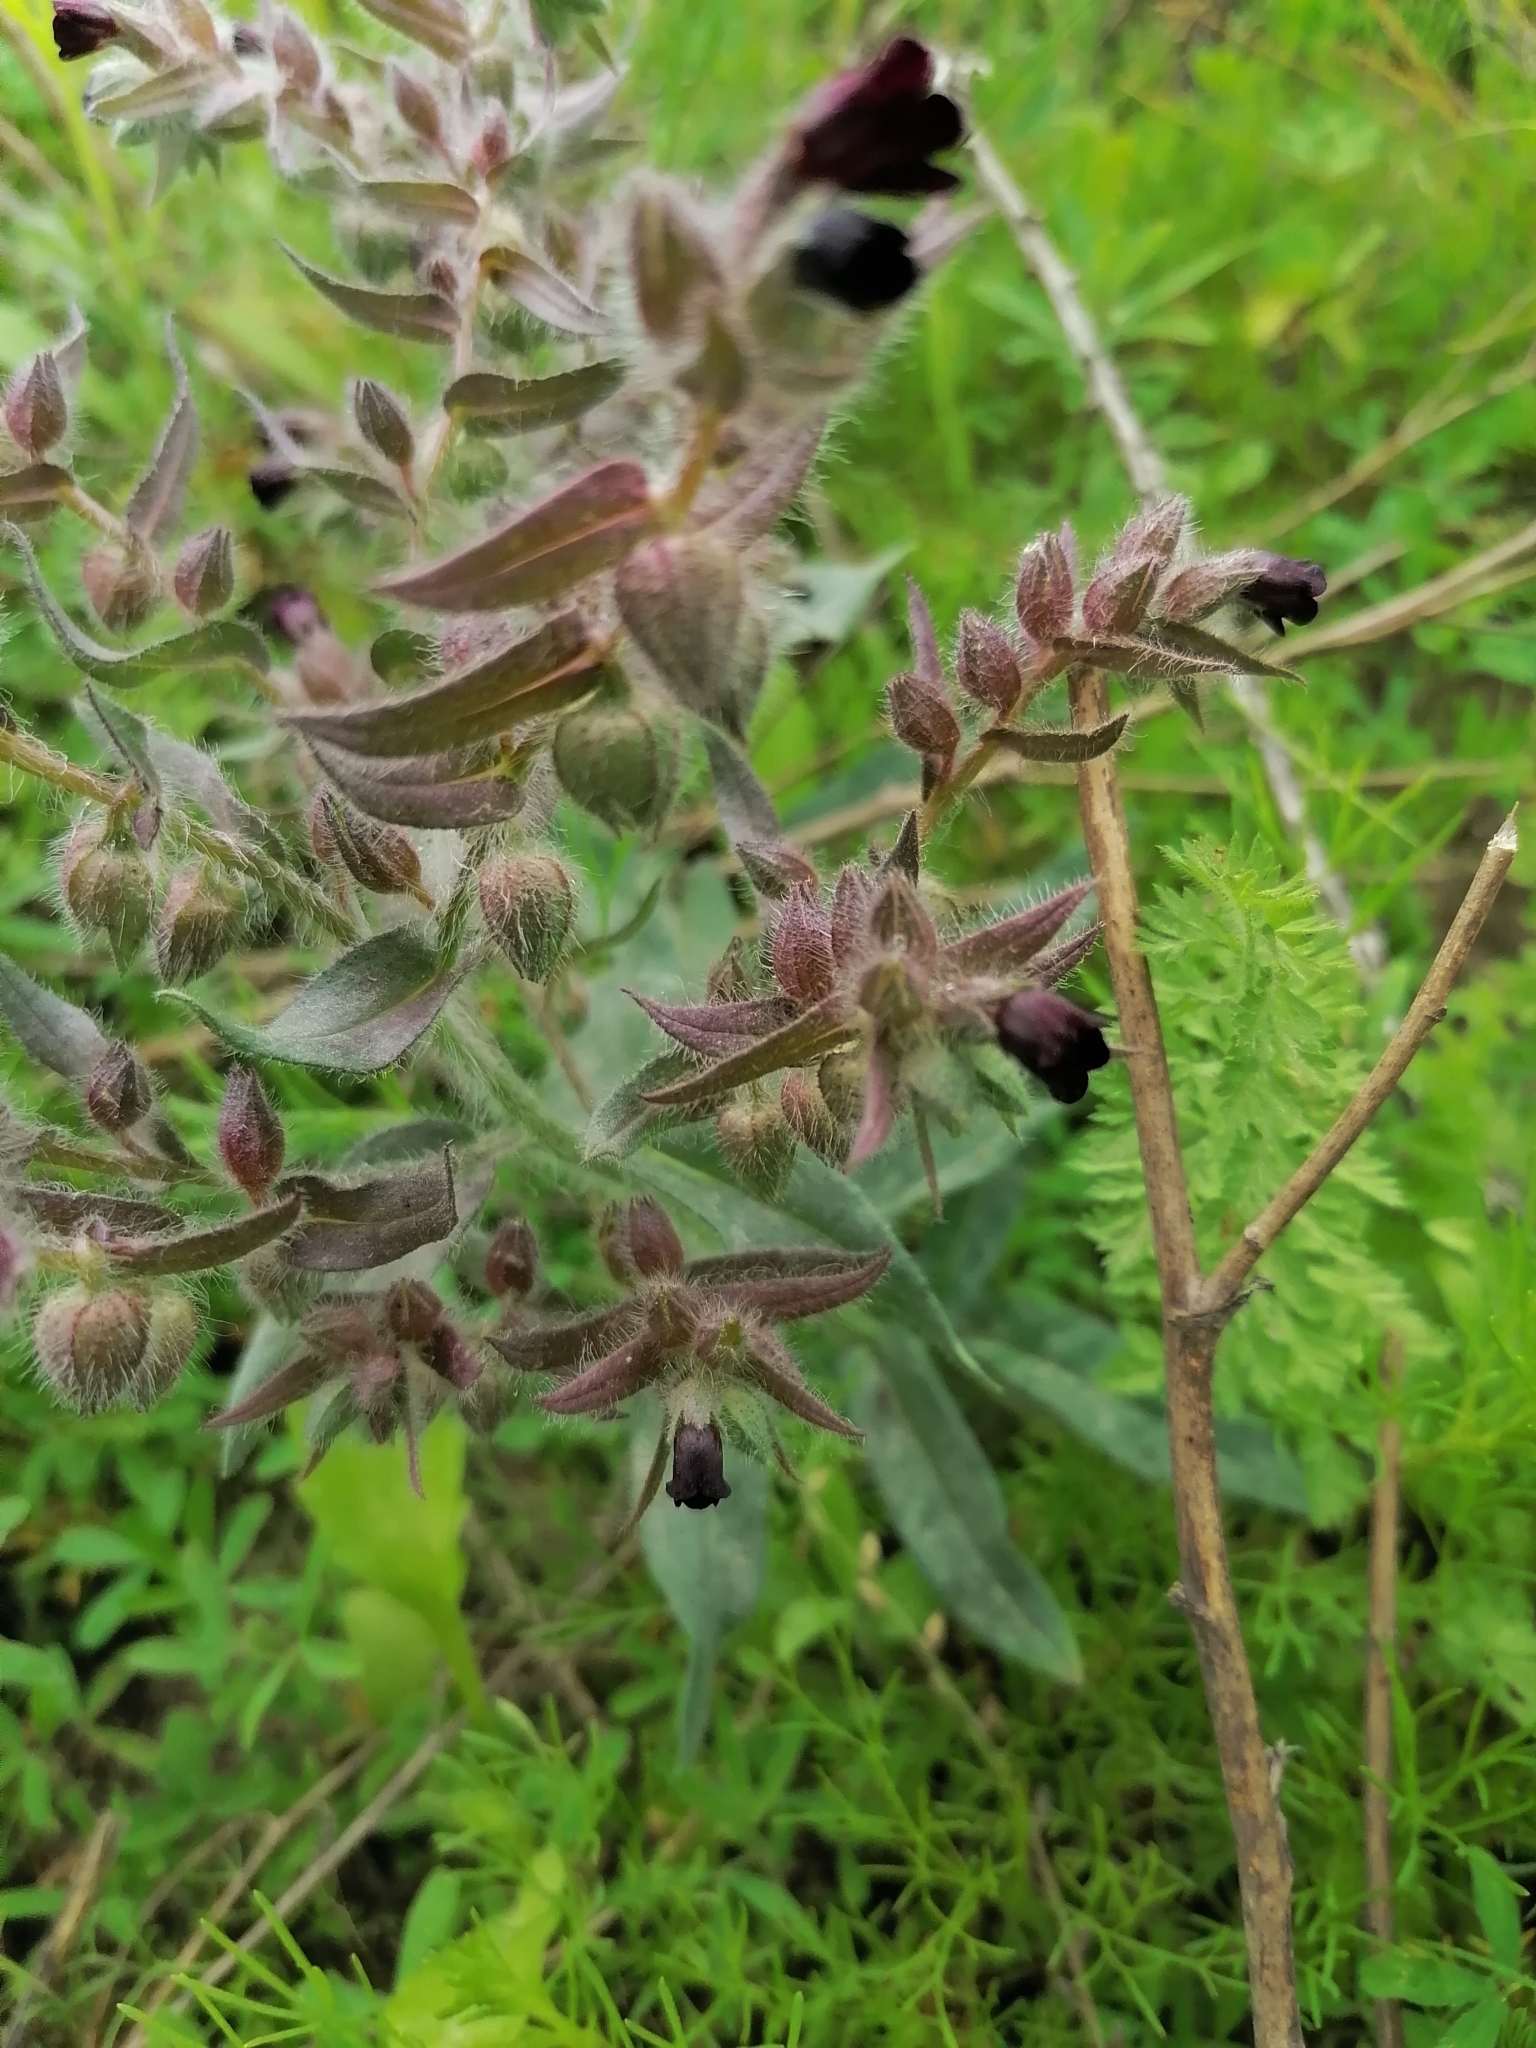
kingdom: Plantae
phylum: Tracheophyta
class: Magnoliopsida
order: Boraginales
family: Boraginaceae
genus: Nonea
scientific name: Nonea pulla
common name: Brown nonea
